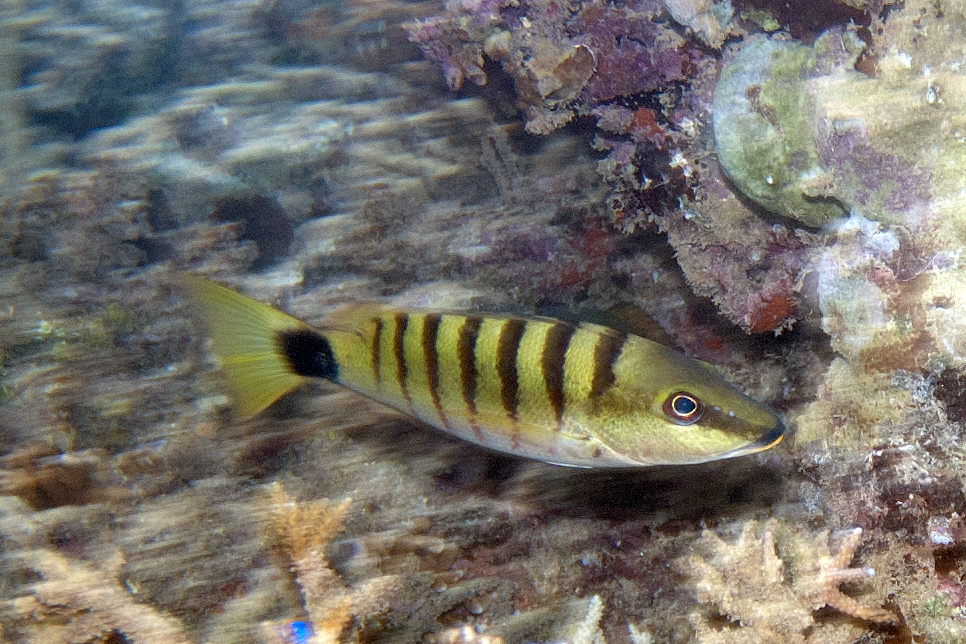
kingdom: Animalia
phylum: Chordata
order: Perciformes
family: Lutjanidae
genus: Lutjanus
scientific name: Lutjanus semicinctus
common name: Half-barred snapper
